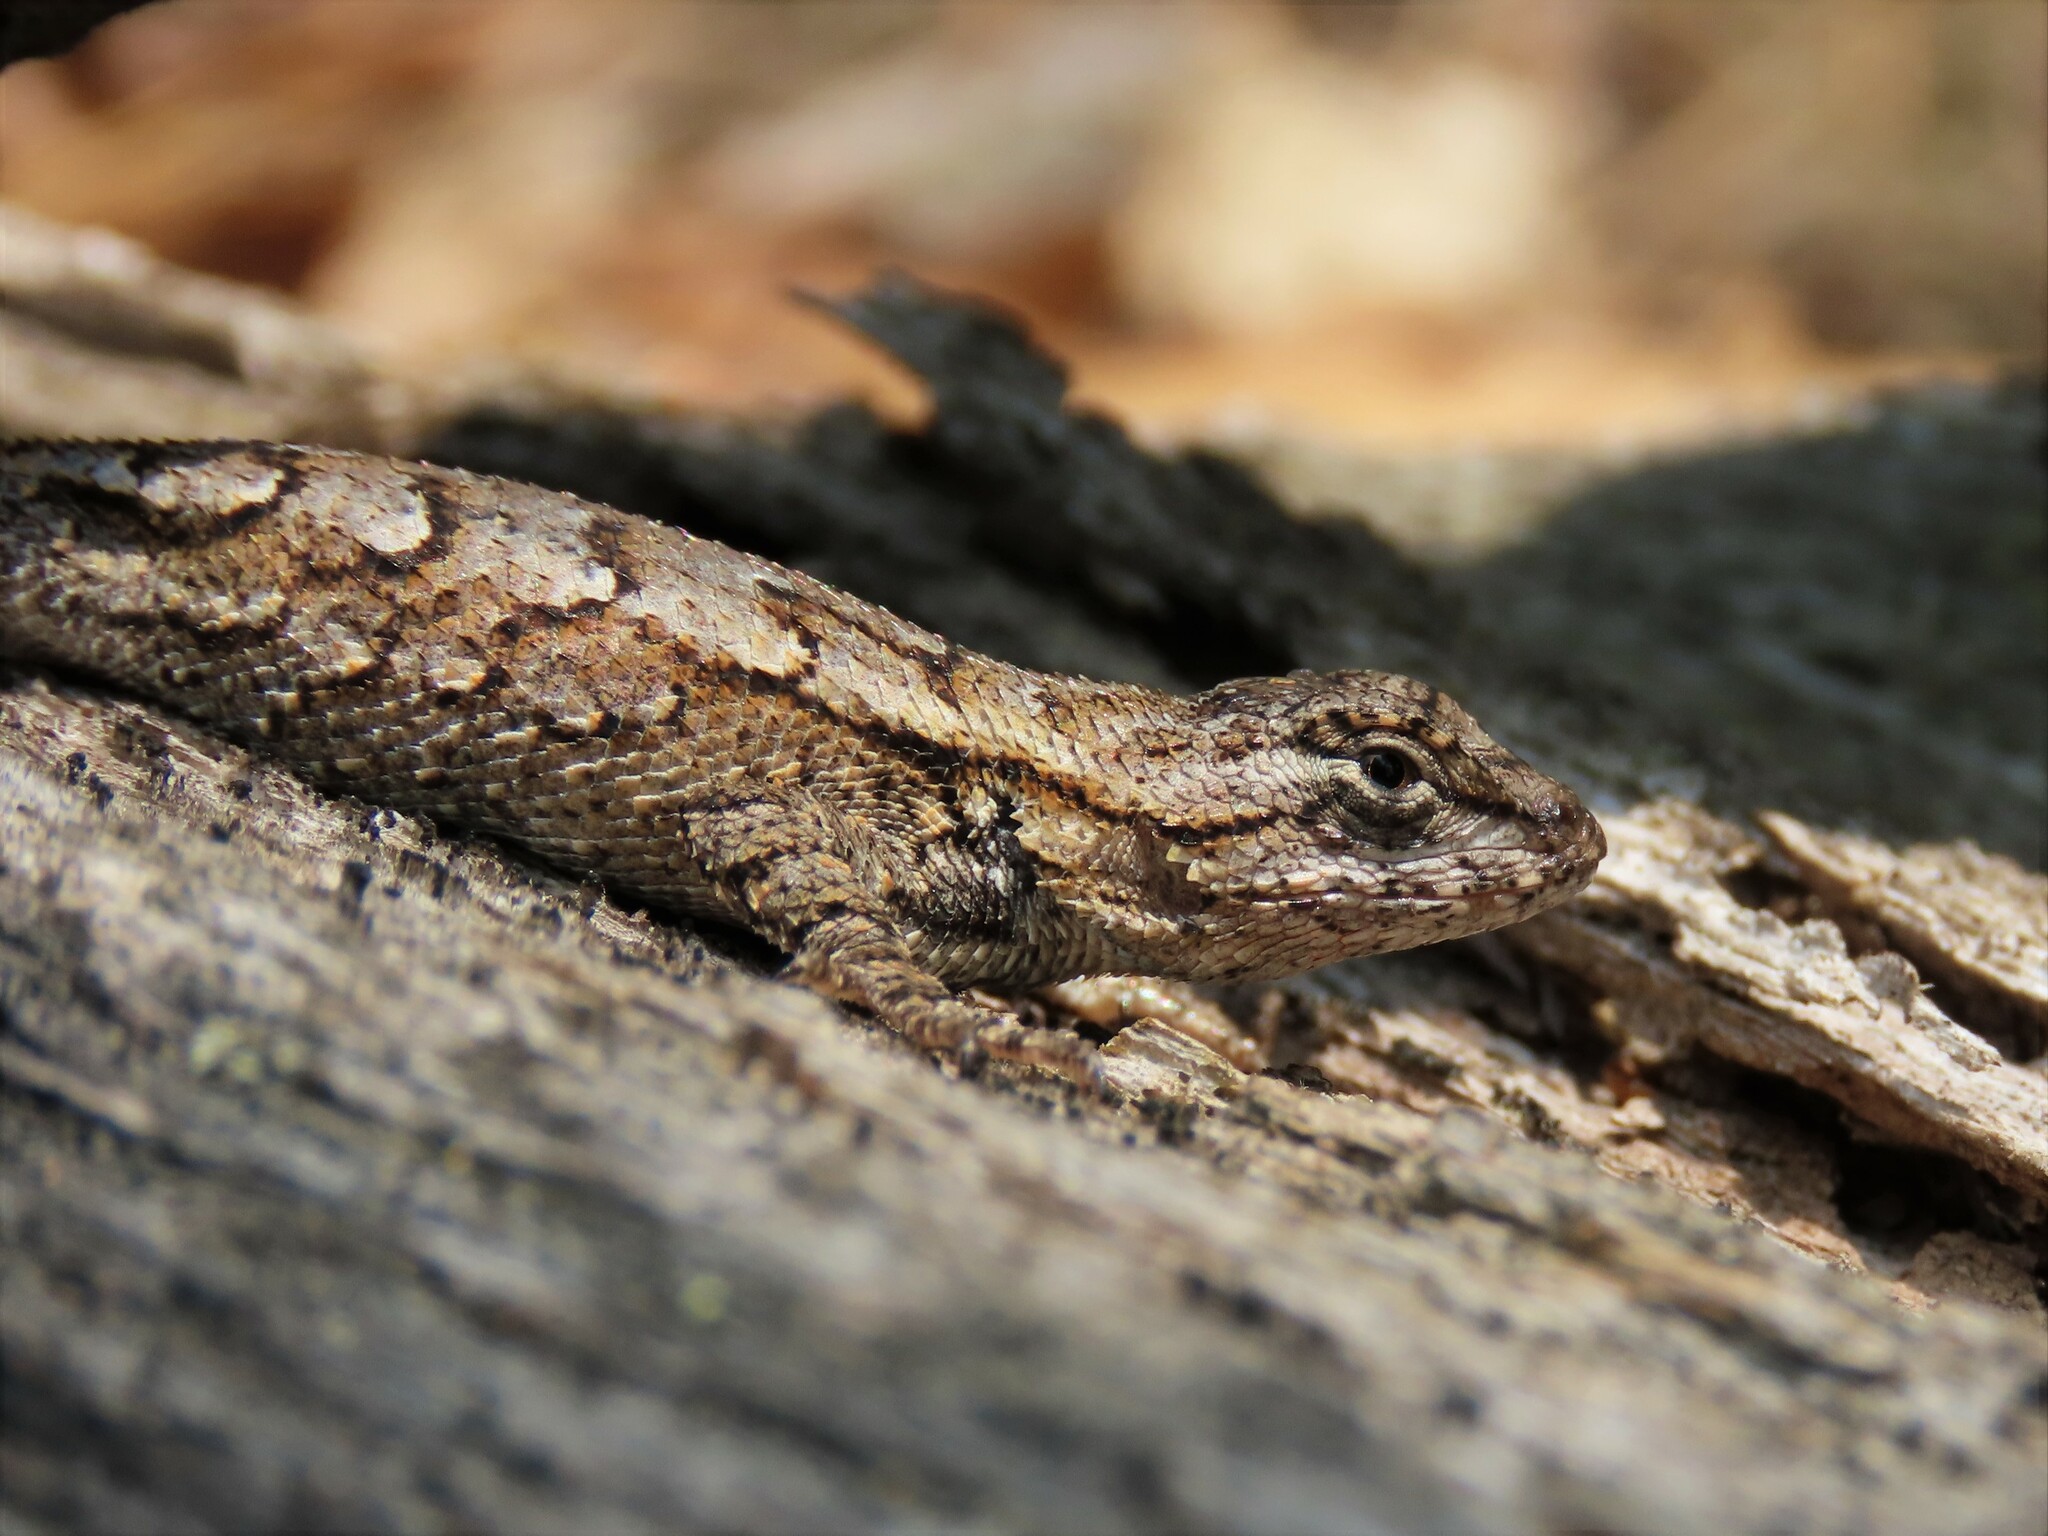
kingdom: Animalia
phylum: Chordata
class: Squamata
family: Phrynosomatidae
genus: Sceloporus
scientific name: Sceloporus undulatus
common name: Eastern fence lizard
